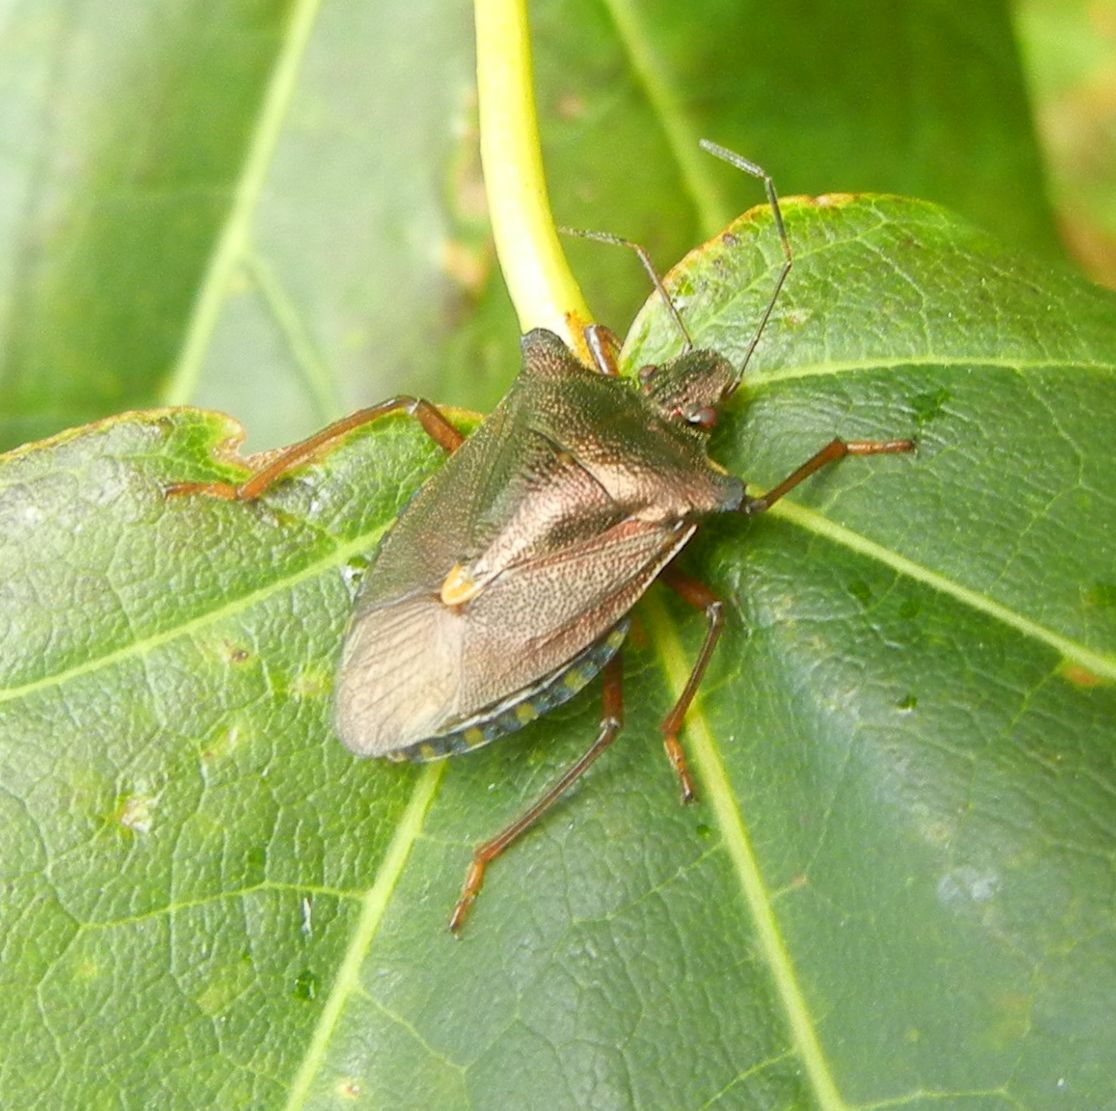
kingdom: Animalia
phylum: Arthropoda
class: Insecta
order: Hemiptera
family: Pentatomidae
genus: Pentatoma
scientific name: Pentatoma rufipes
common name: Forest bug
